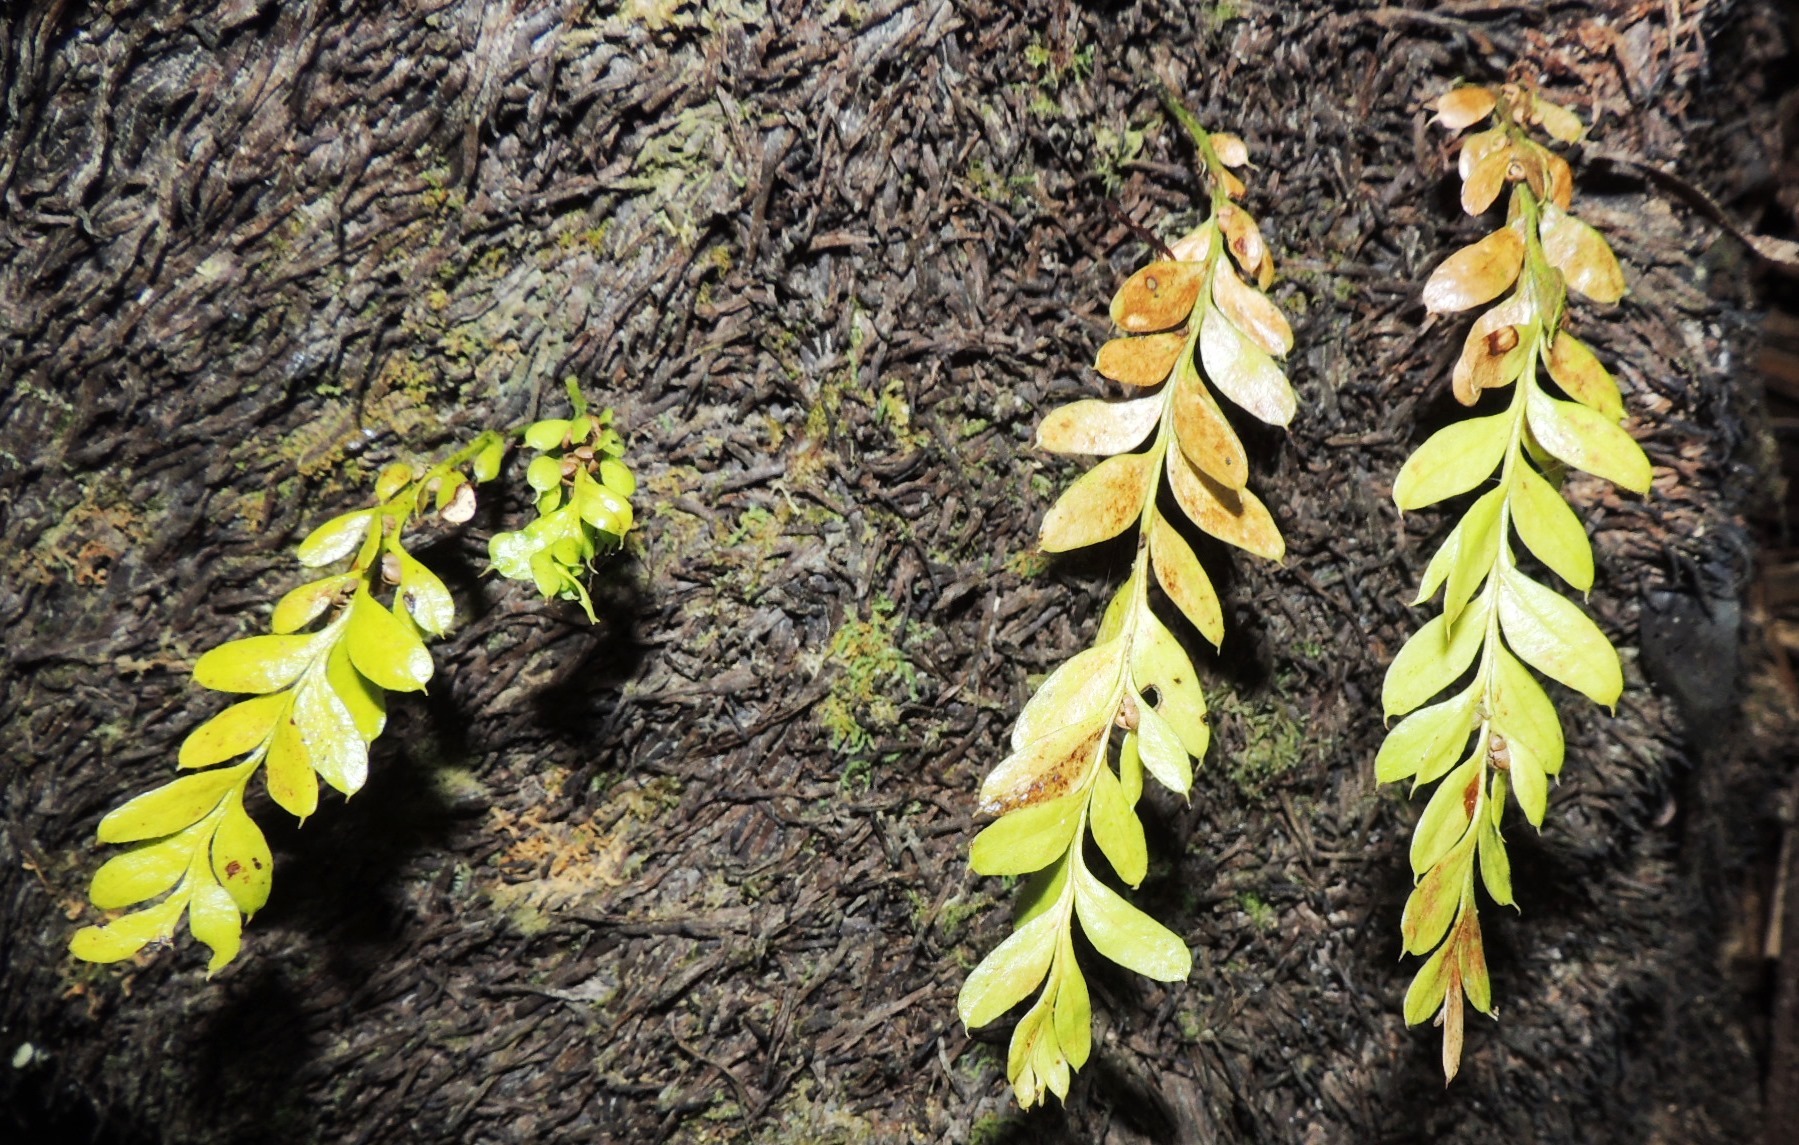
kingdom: Plantae
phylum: Tracheophyta
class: Polypodiopsida
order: Psilotales
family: Psilotaceae
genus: Tmesipteris
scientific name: Tmesipteris lanceolata
